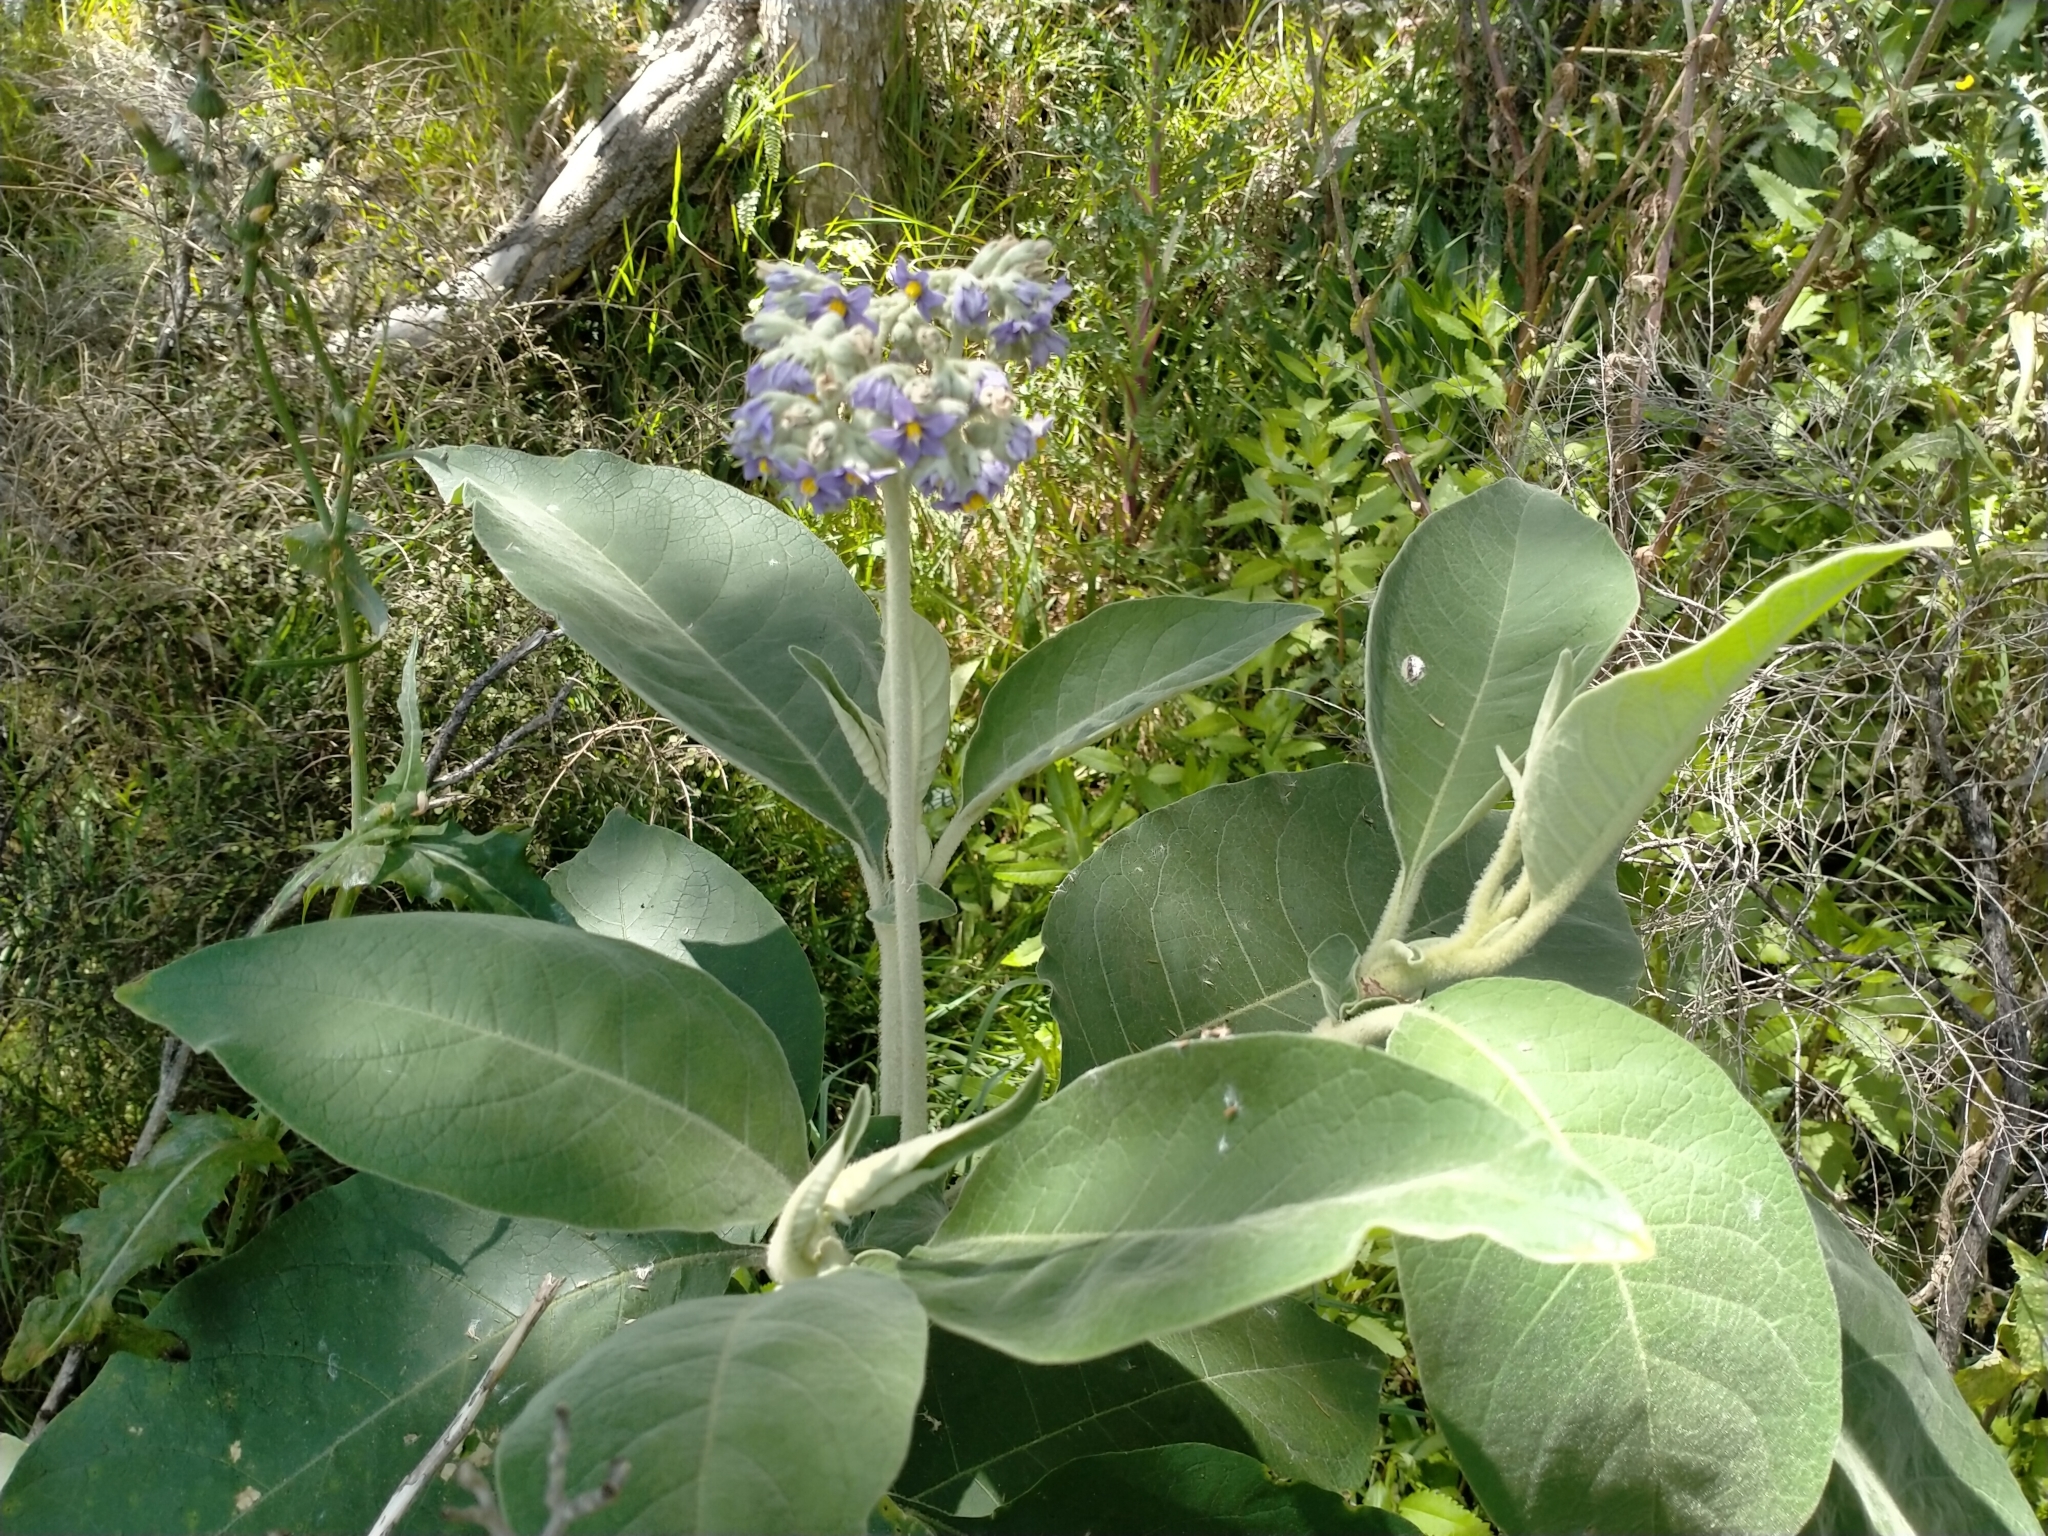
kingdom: Plantae
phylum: Tracheophyta
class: Magnoliopsida
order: Solanales
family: Solanaceae
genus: Solanum
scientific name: Solanum mauritianum
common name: Earleaf nightshade
